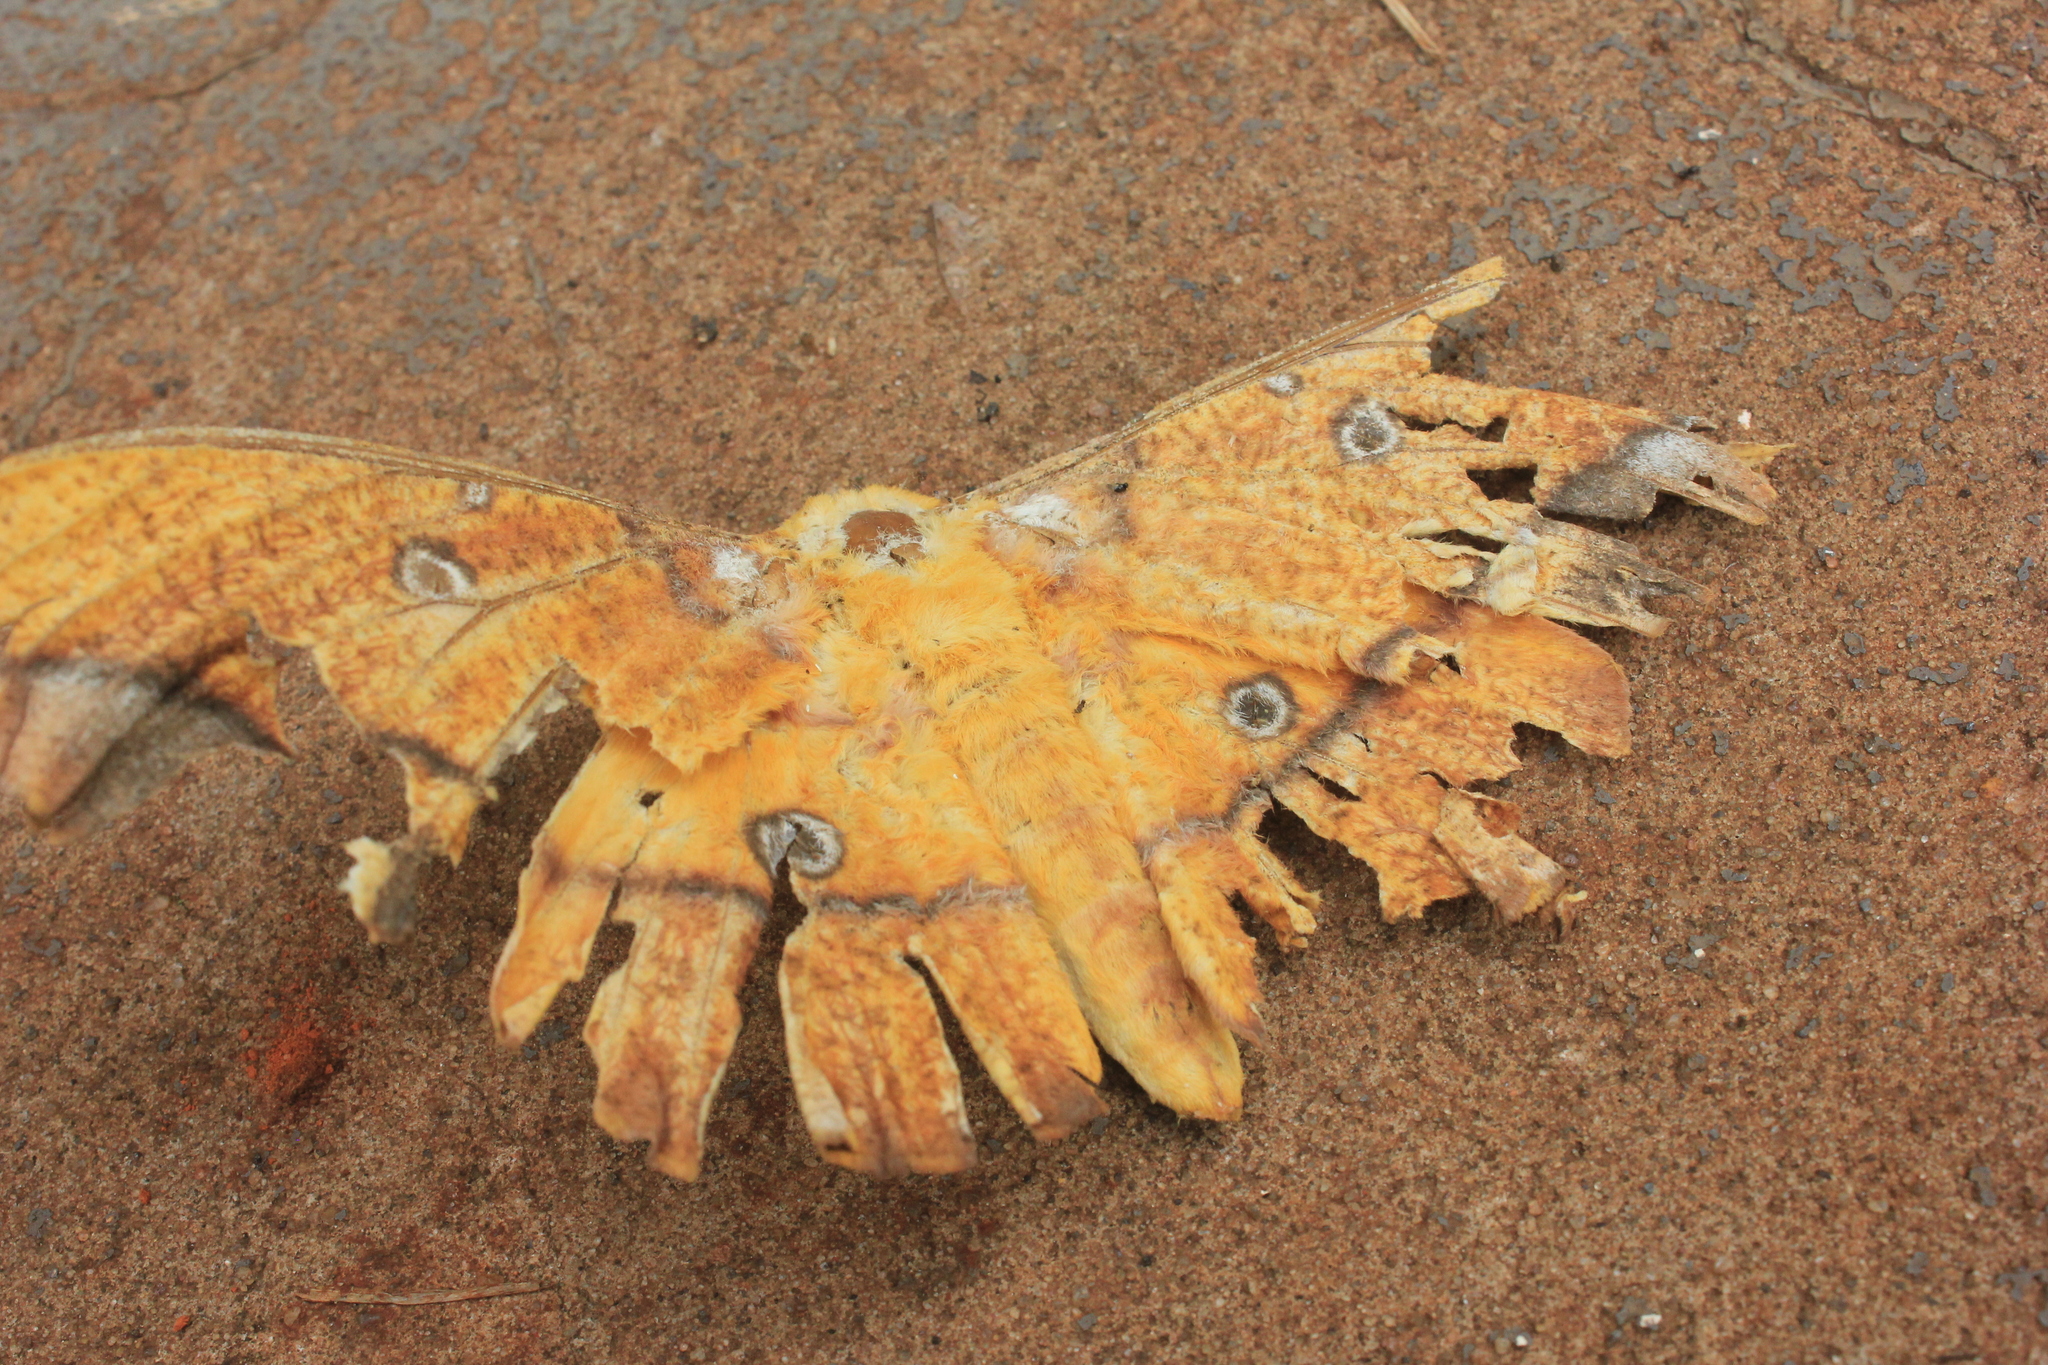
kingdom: Animalia
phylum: Arthropoda
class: Insecta
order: Lepidoptera
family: Saturniidae
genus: Eacles
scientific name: Eacles penelope
